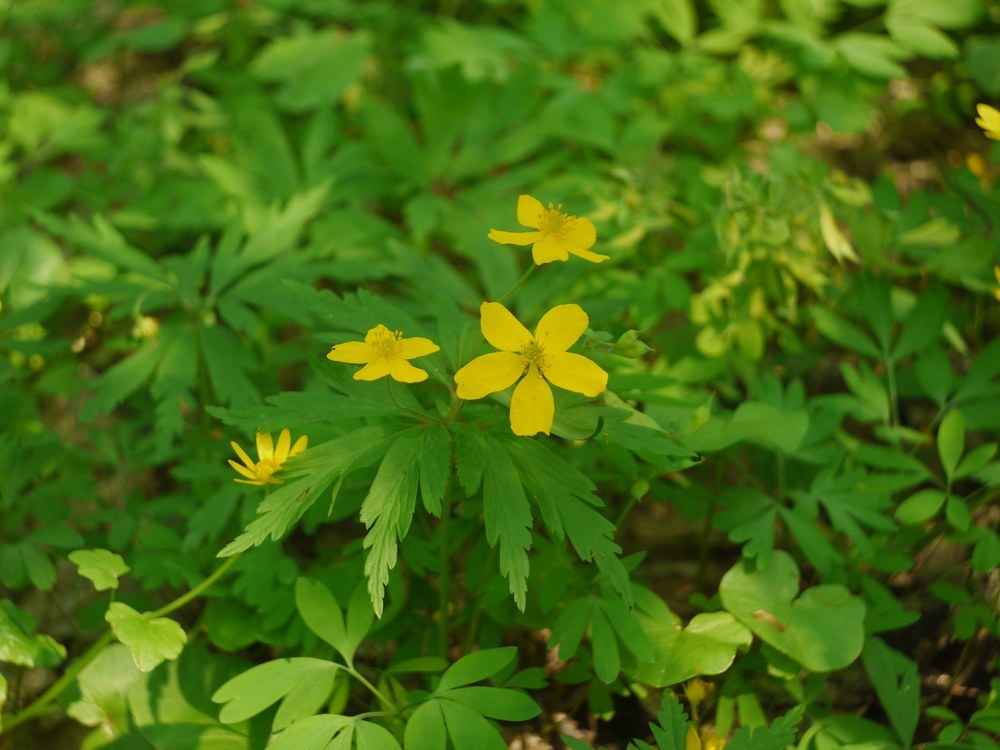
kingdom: Plantae
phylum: Tracheophyta
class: Magnoliopsida
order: Ranunculales
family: Ranunculaceae
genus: Anemone
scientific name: Anemone ranunculoides
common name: Yellow anemone
